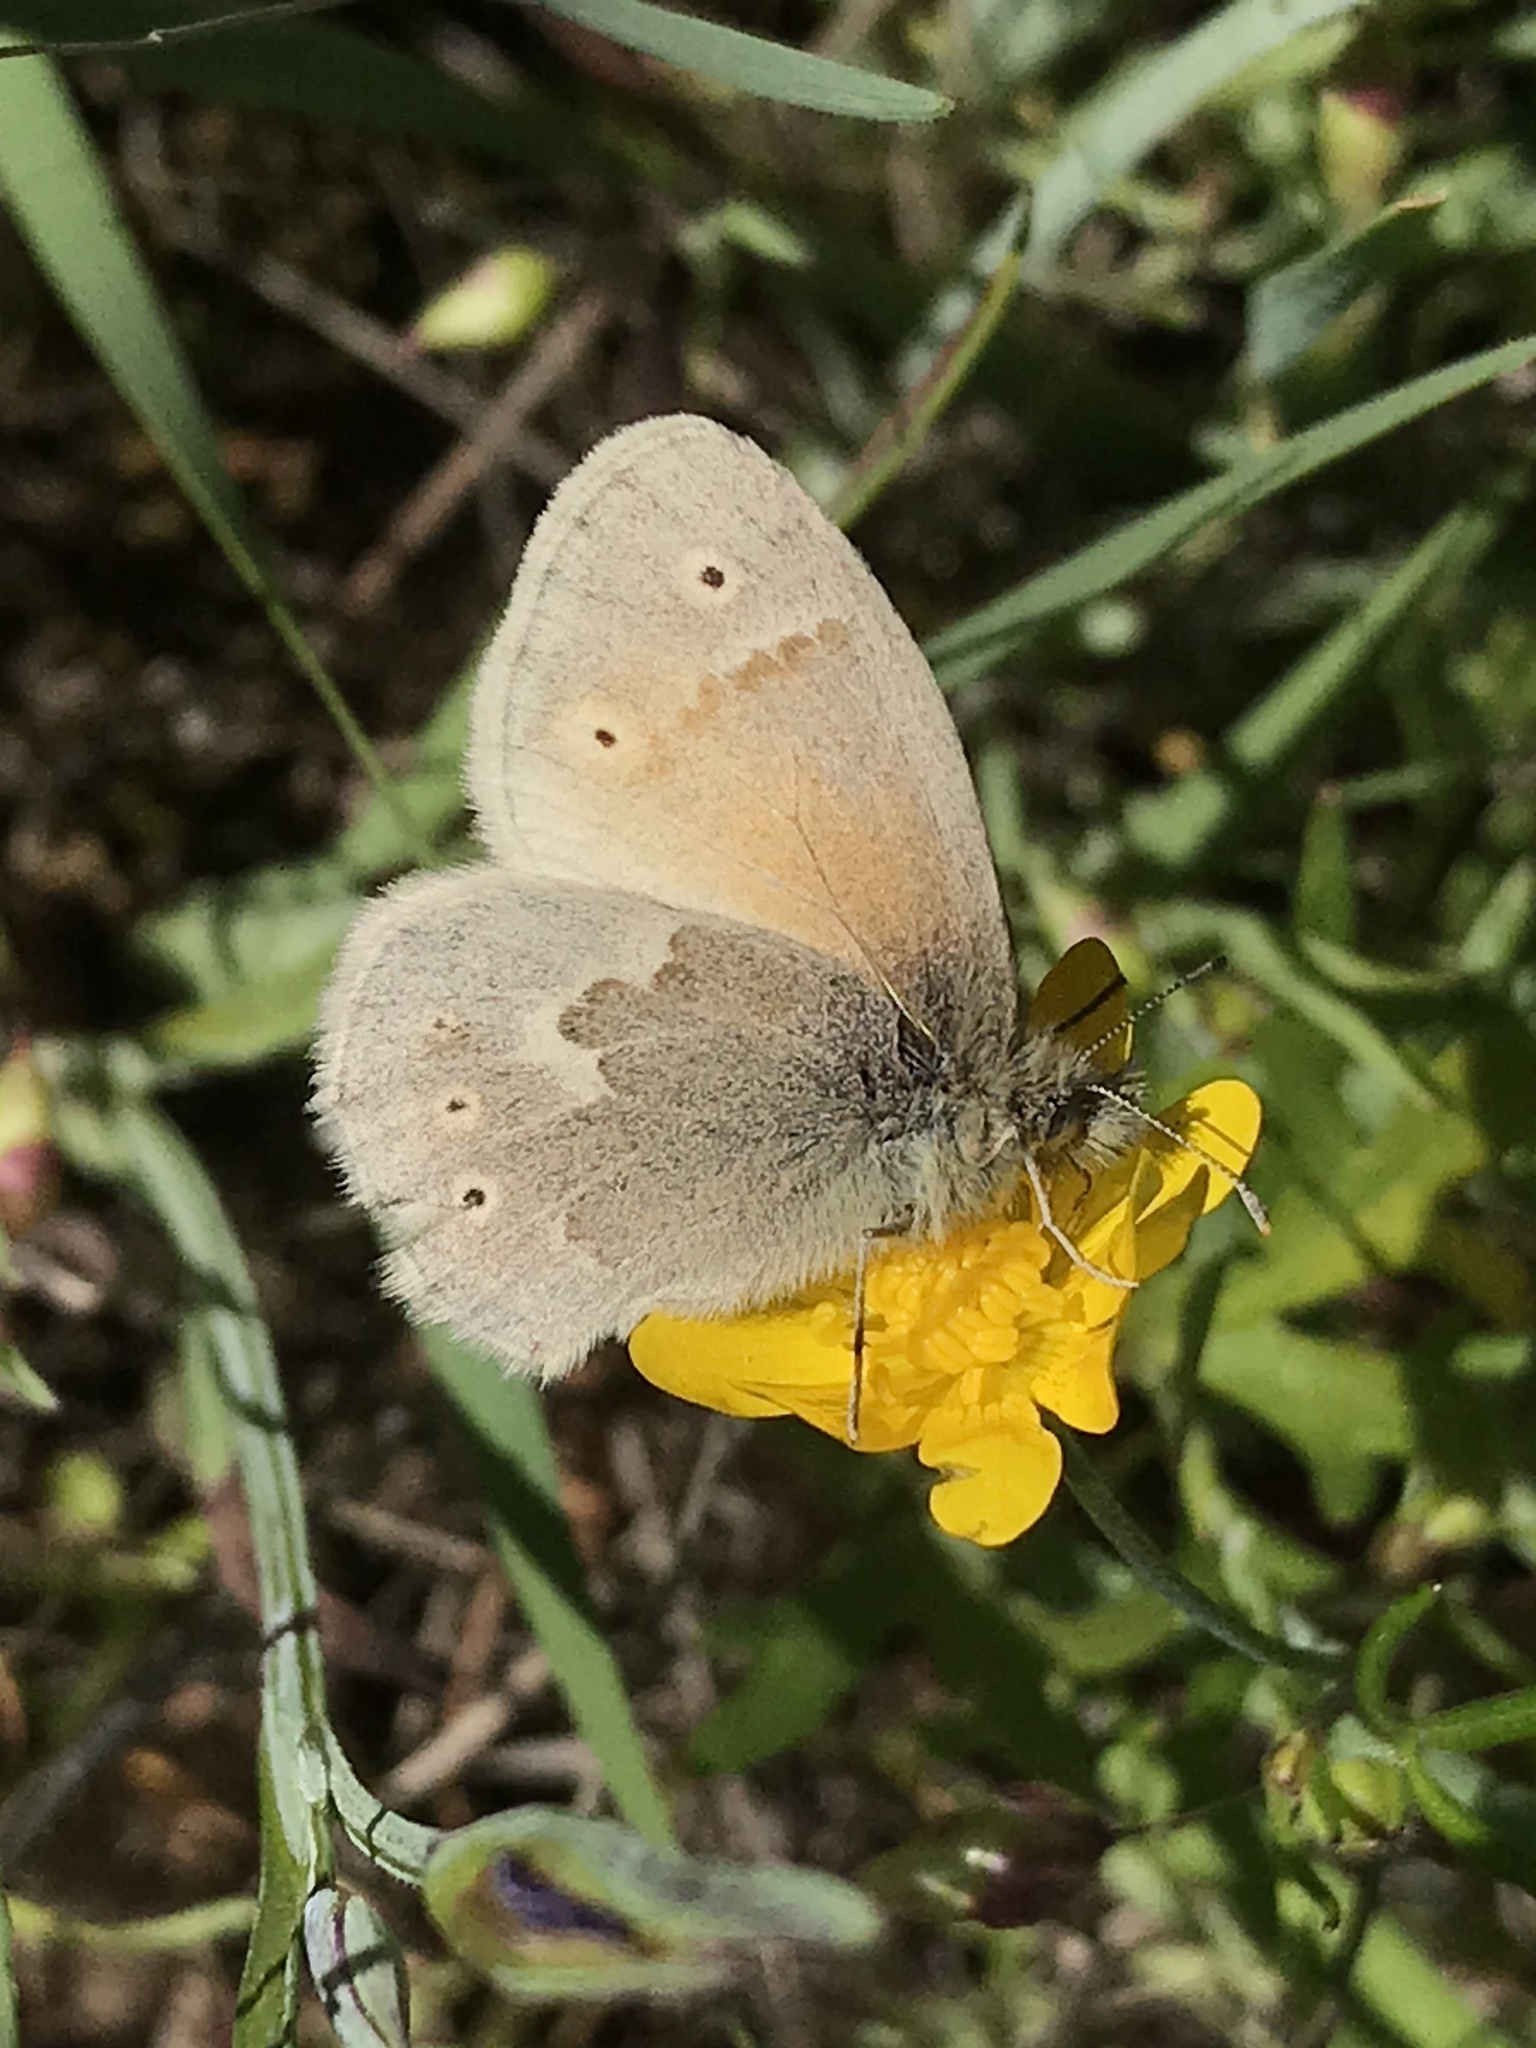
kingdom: Animalia
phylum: Arthropoda
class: Insecta
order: Lepidoptera
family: Nymphalidae
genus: Coenonympha
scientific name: Coenonympha california
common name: Common ringlet
